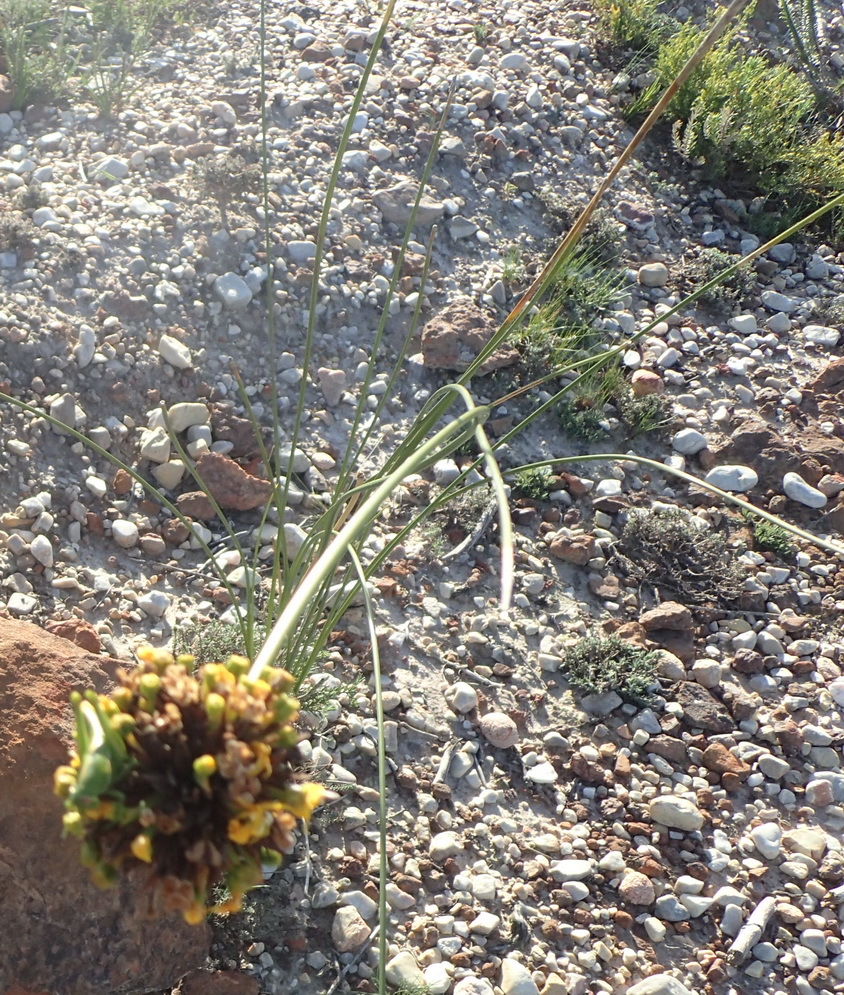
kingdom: Plantae
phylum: Tracheophyta
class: Liliopsida
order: Asparagales
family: Iridaceae
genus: Bobartia
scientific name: Bobartia orientalis
